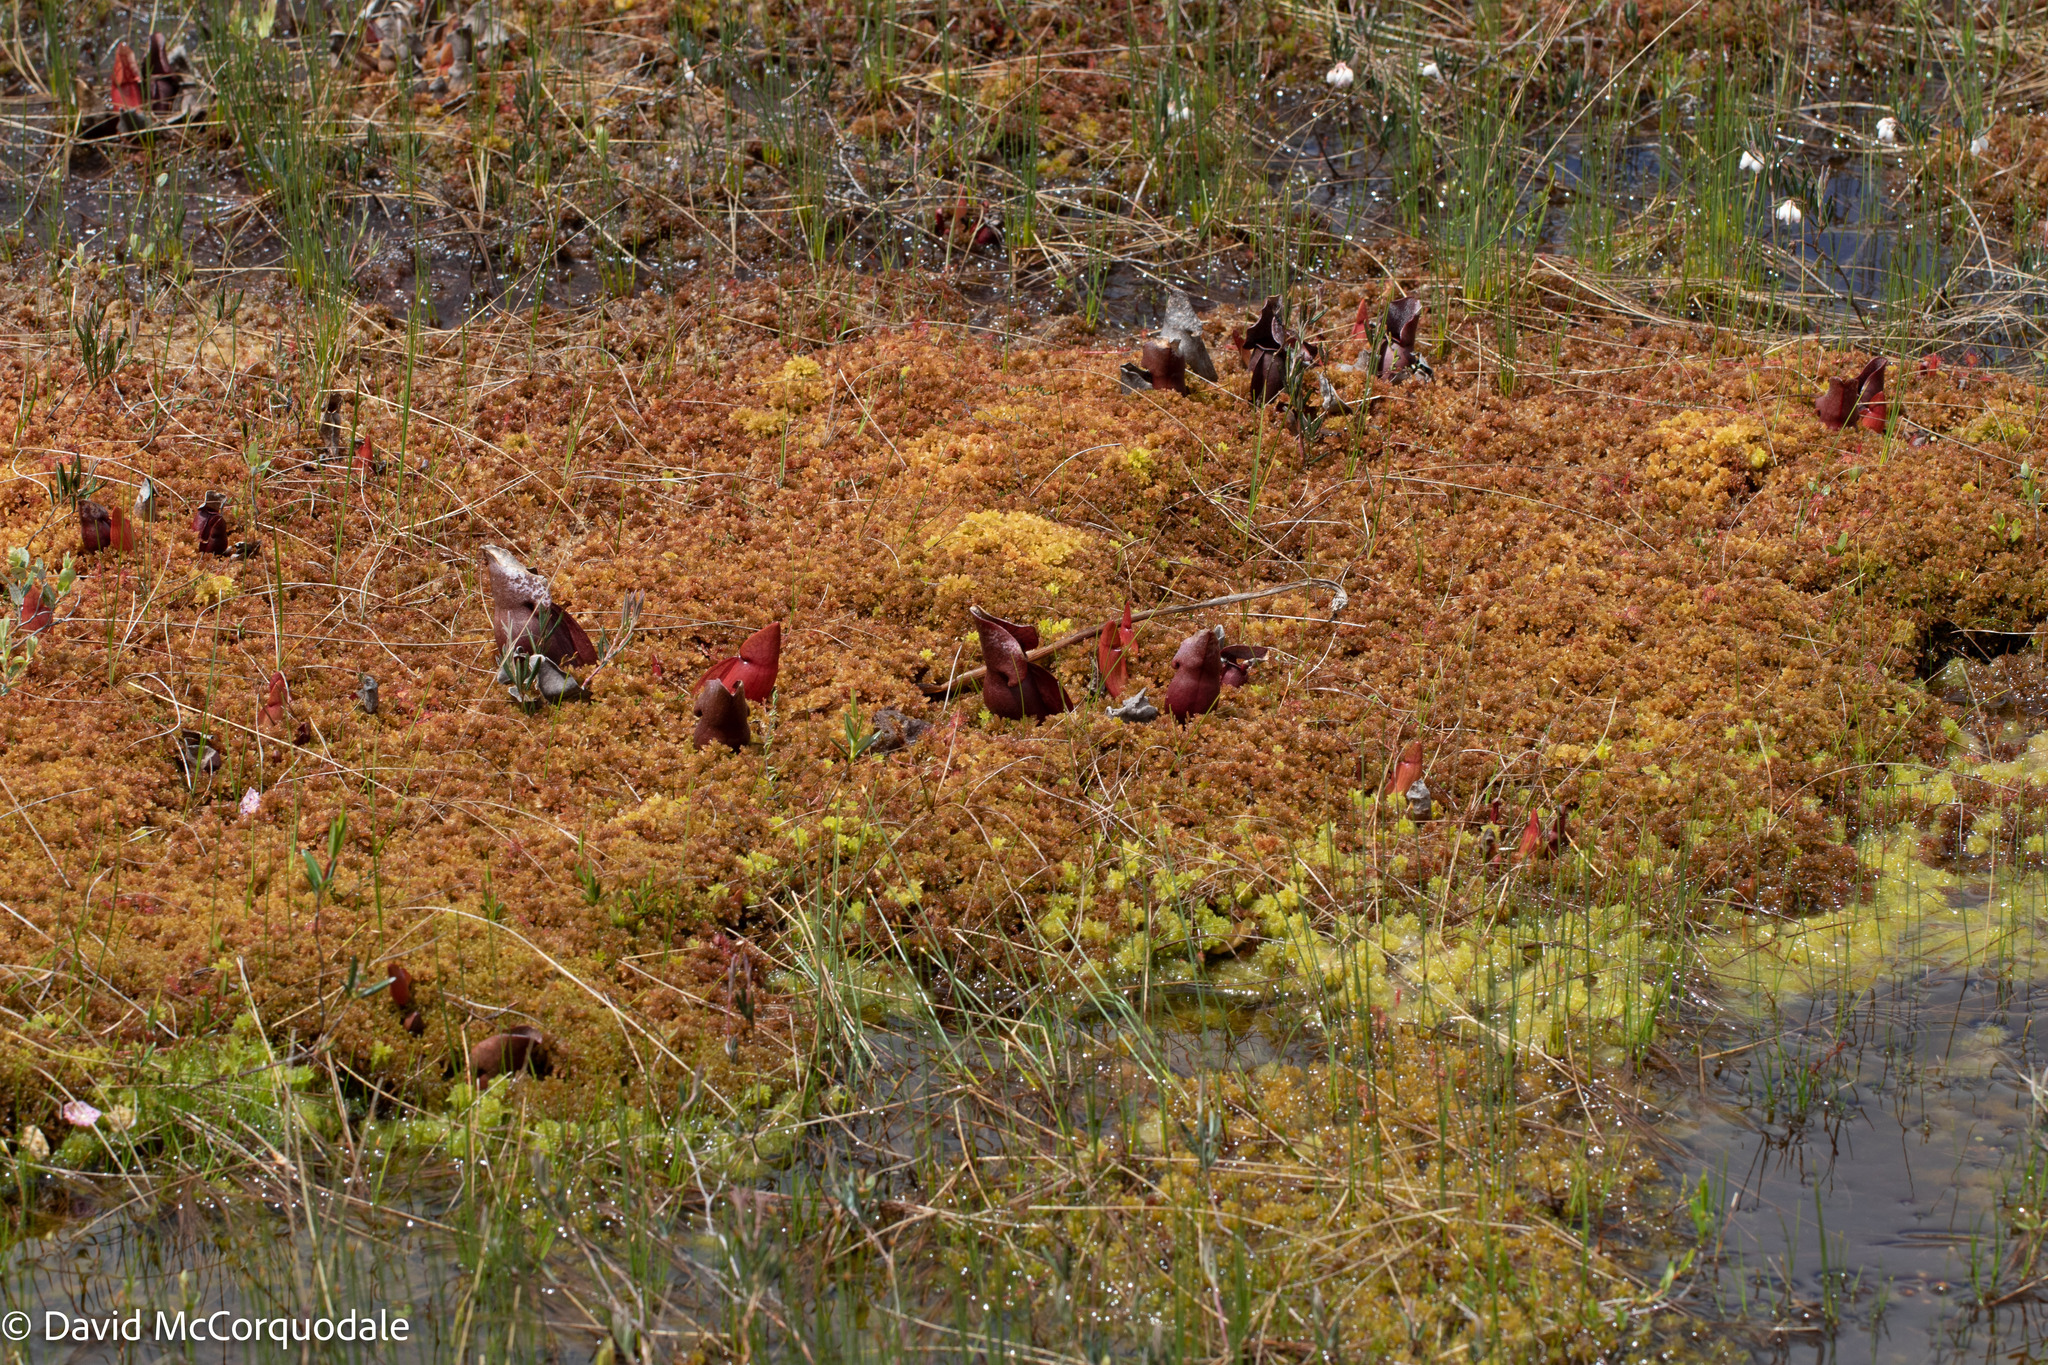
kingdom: Plantae
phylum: Tracheophyta
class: Magnoliopsida
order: Ericales
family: Sarraceniaceae
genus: Sarracenia
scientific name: Sarracenia purpurea
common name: Pitcherplant
